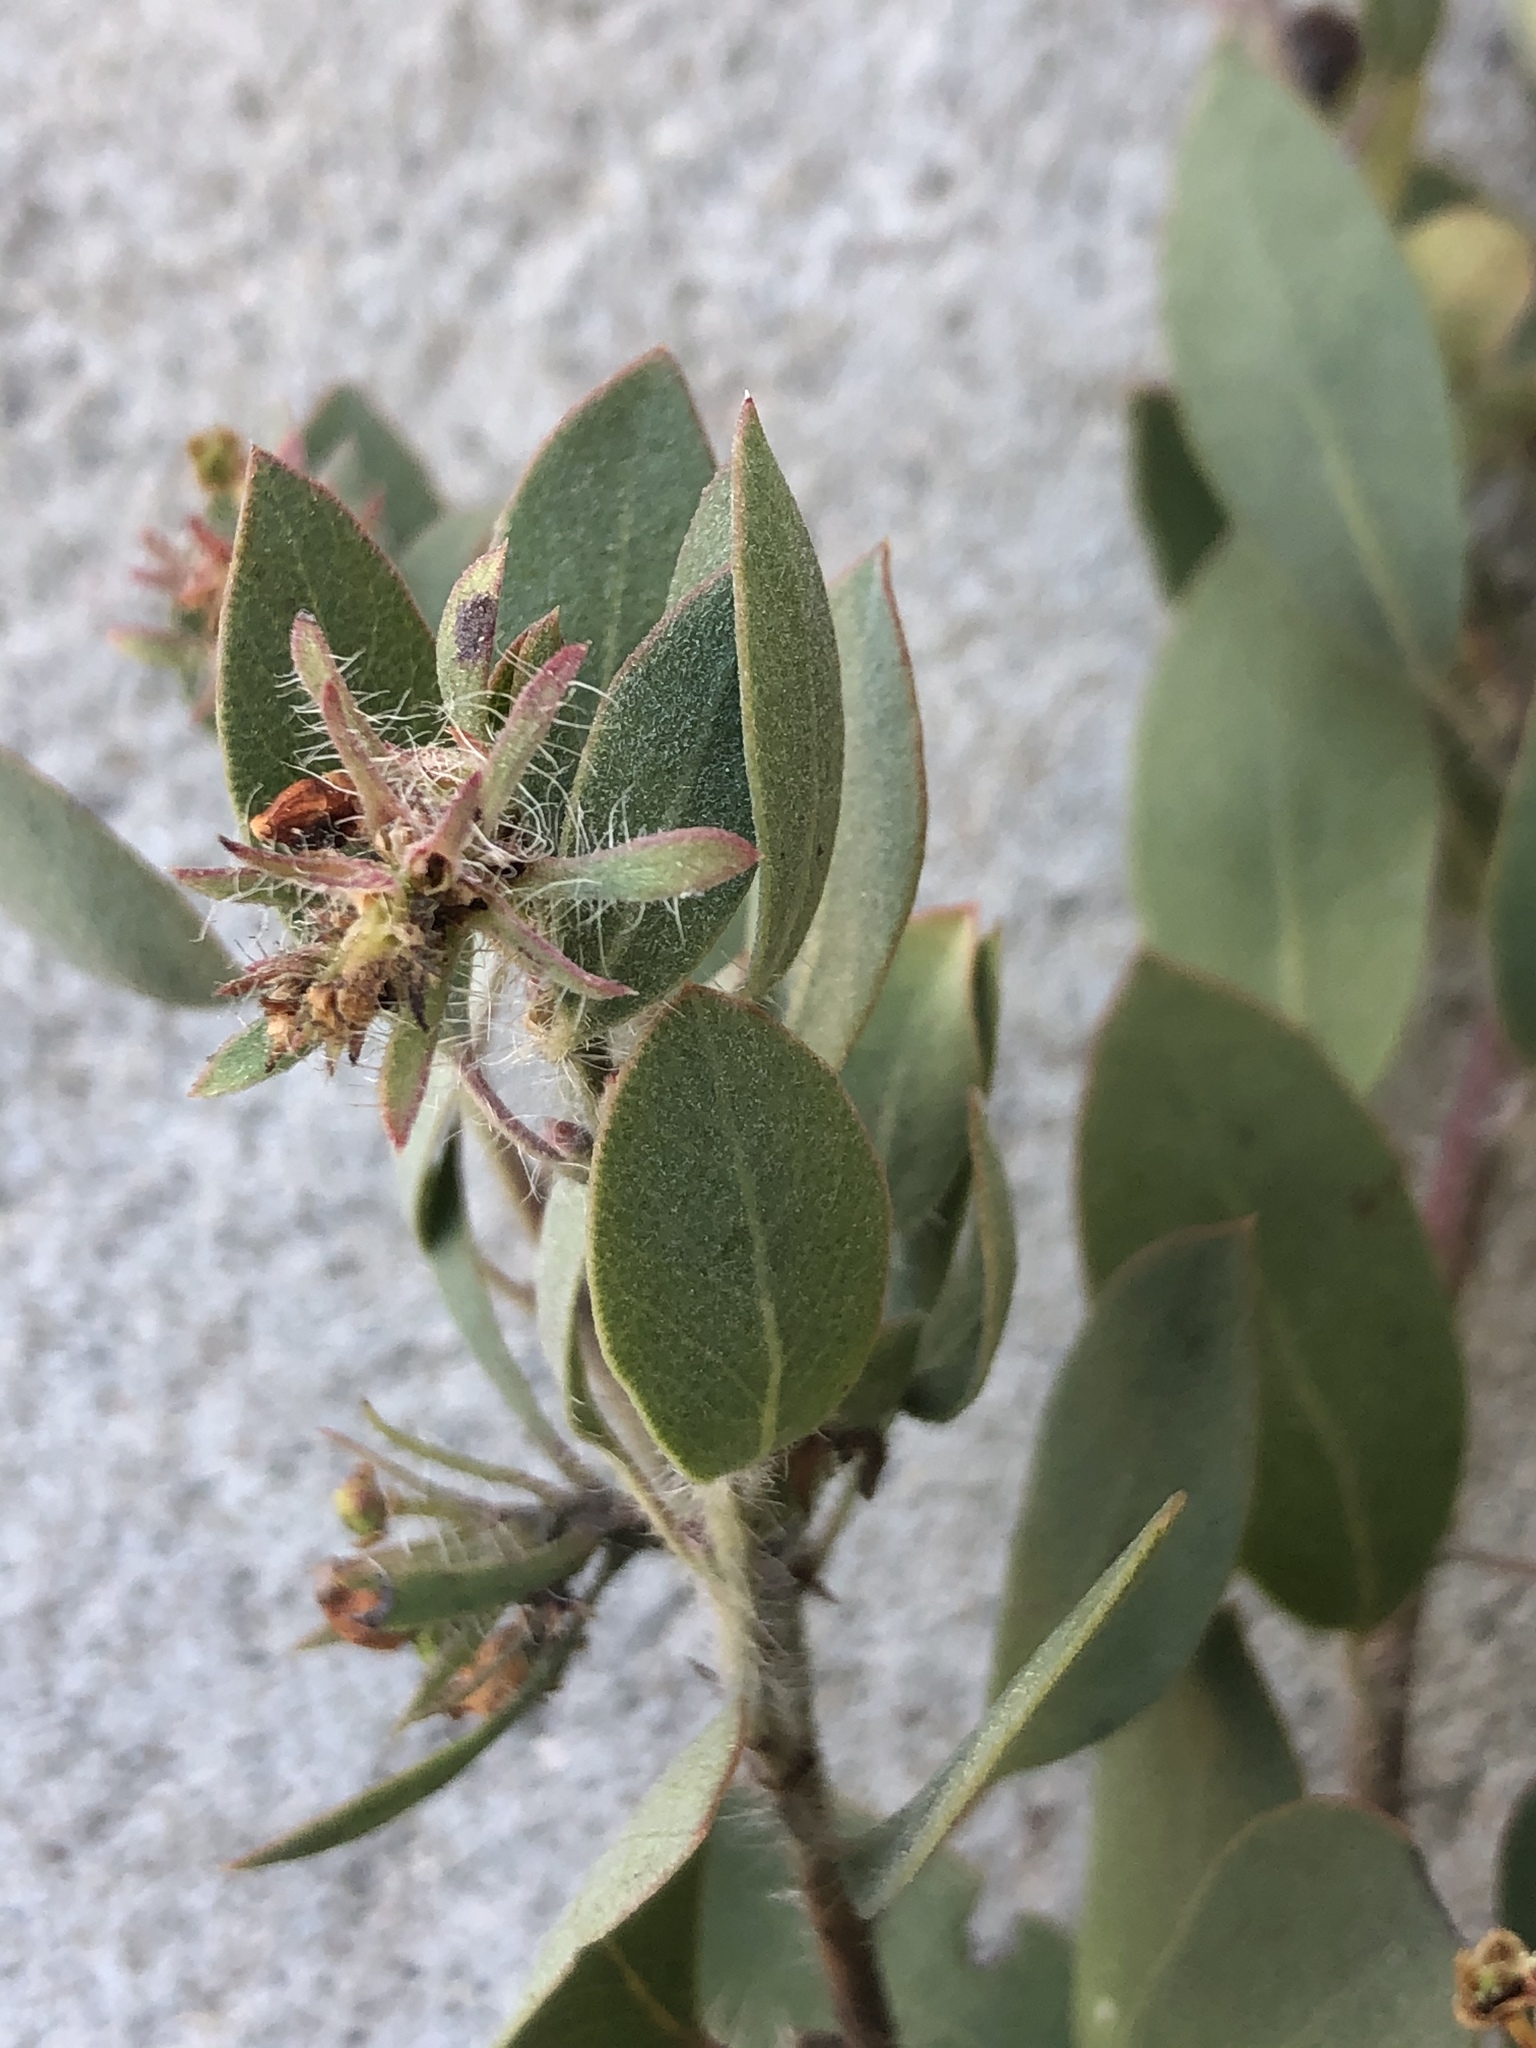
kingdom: Plantae
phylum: Tracheophyta
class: Magnoliopsida
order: Ericales
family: Ericaceae
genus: Arctostaphylos
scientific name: Arctostaphylos pilosula
